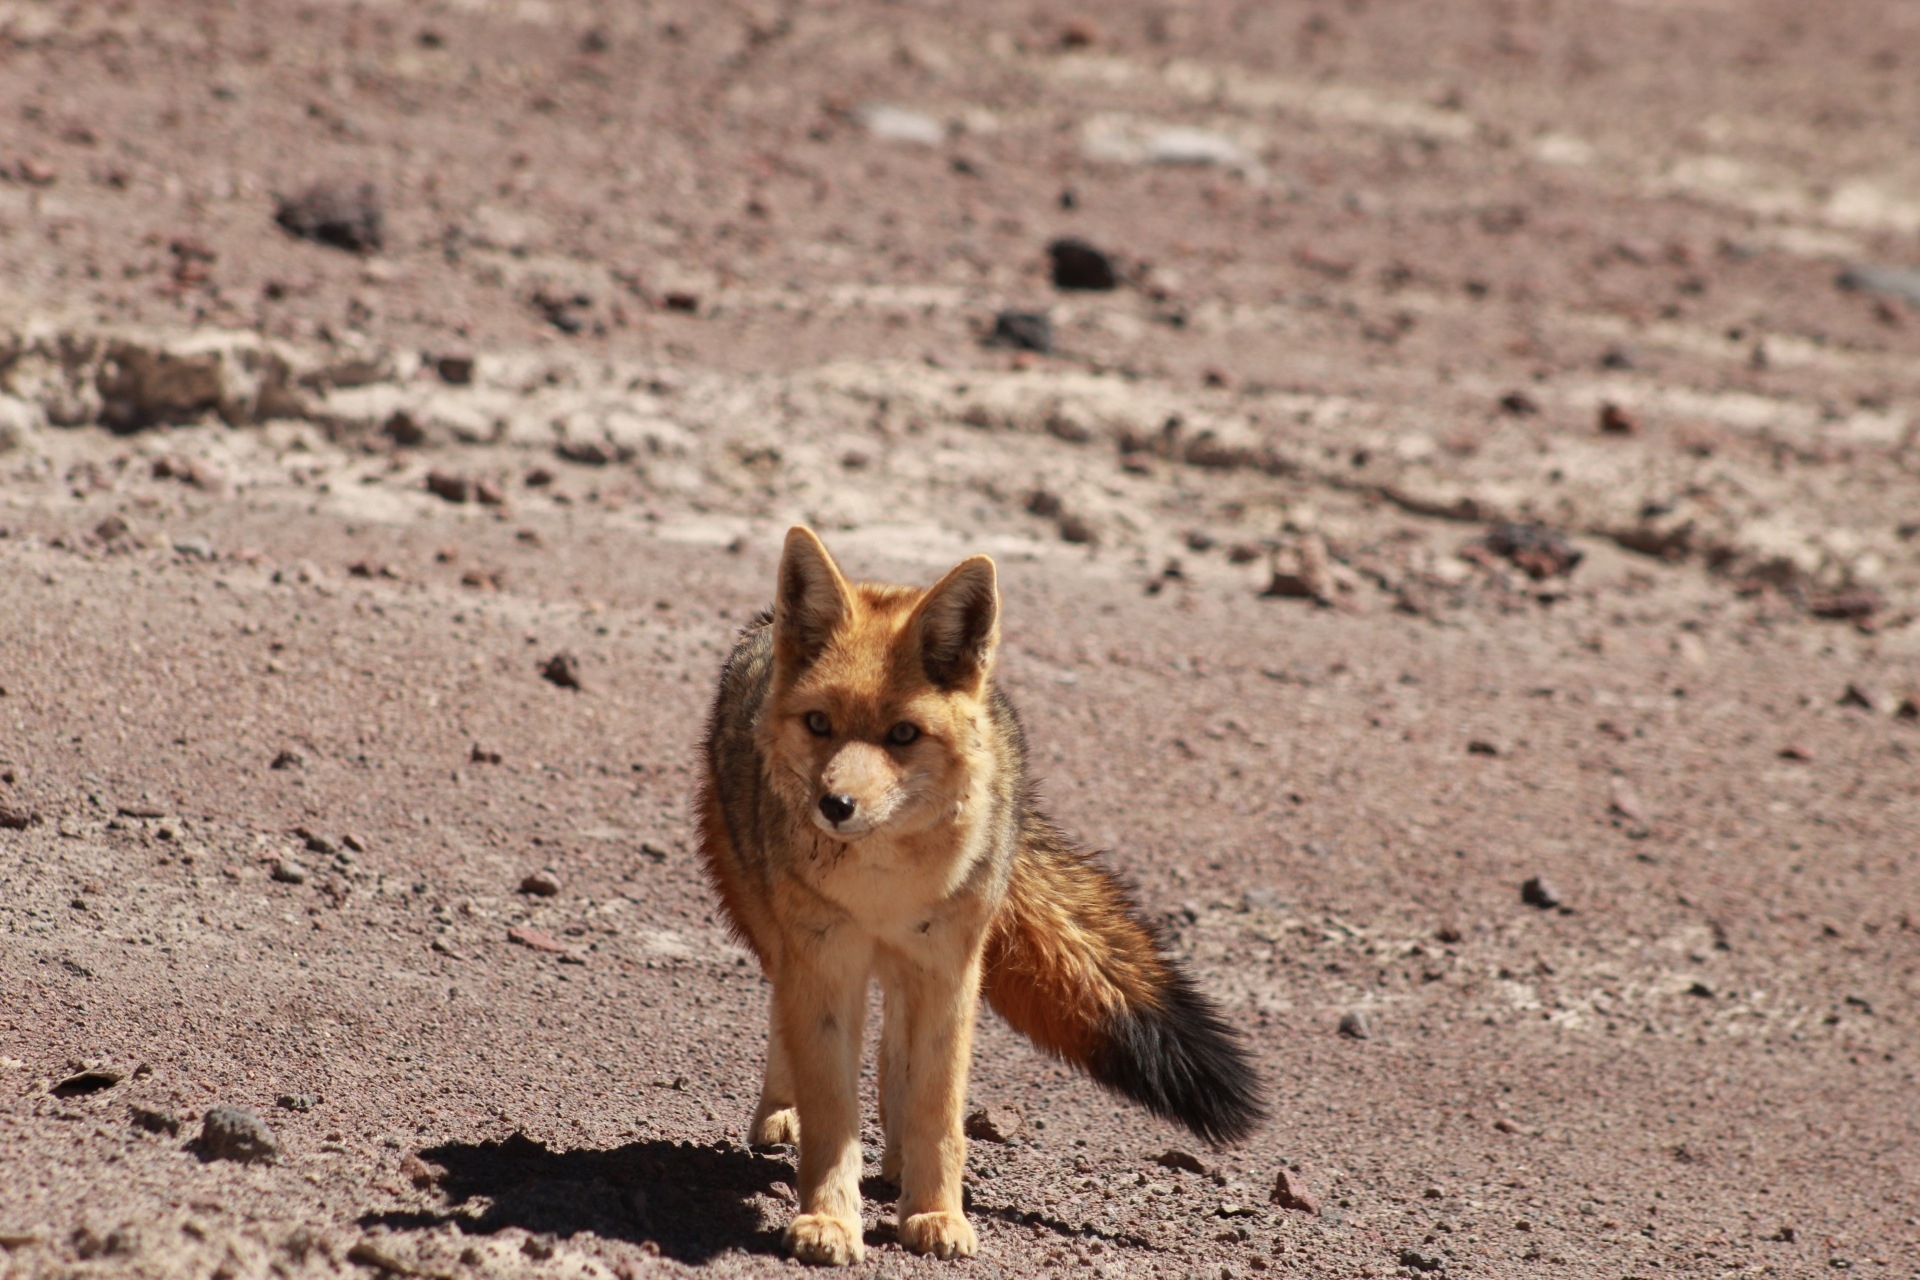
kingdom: Animalia
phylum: Chordata
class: Mammalia
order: Carnivora
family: Canidae
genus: Lycalopex
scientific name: Lycalopex culpaeus
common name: Culpeo
